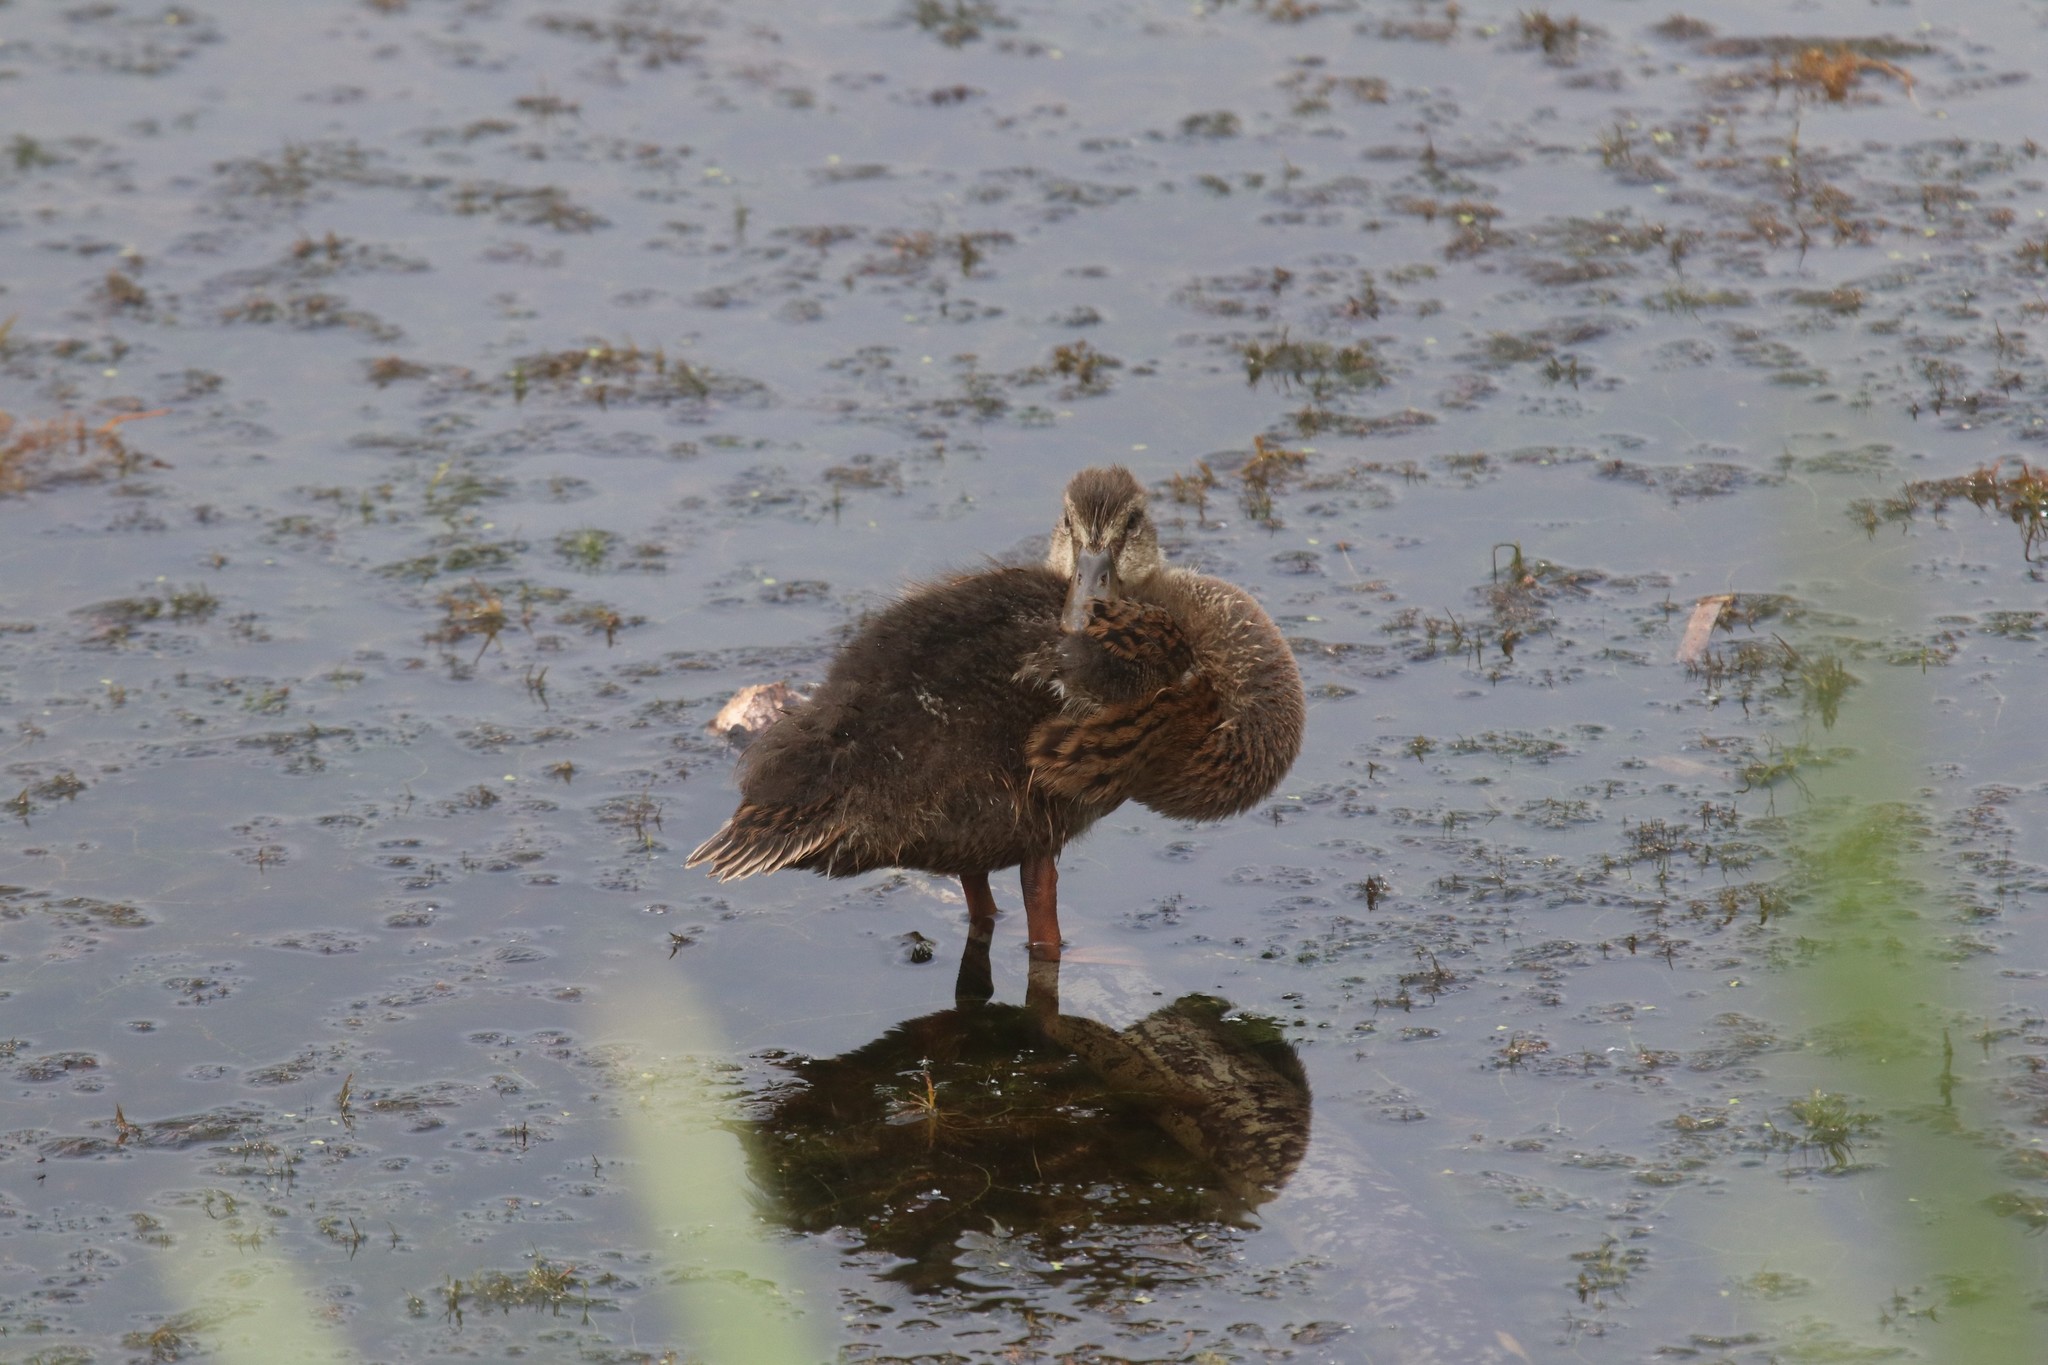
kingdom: Animalia
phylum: Chordata
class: Aves
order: Anseriformes
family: Anatidae
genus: Anas
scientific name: Anas platyrhynchos
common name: Mallard
